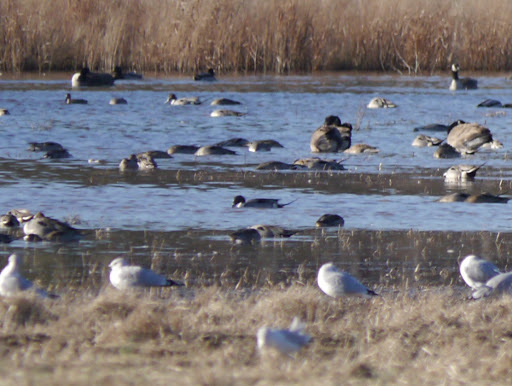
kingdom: Animalia
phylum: Chordata
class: Aves
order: Anseriformes
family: Anatidae
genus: Anas
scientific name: Anas acuta
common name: Northern pintail
